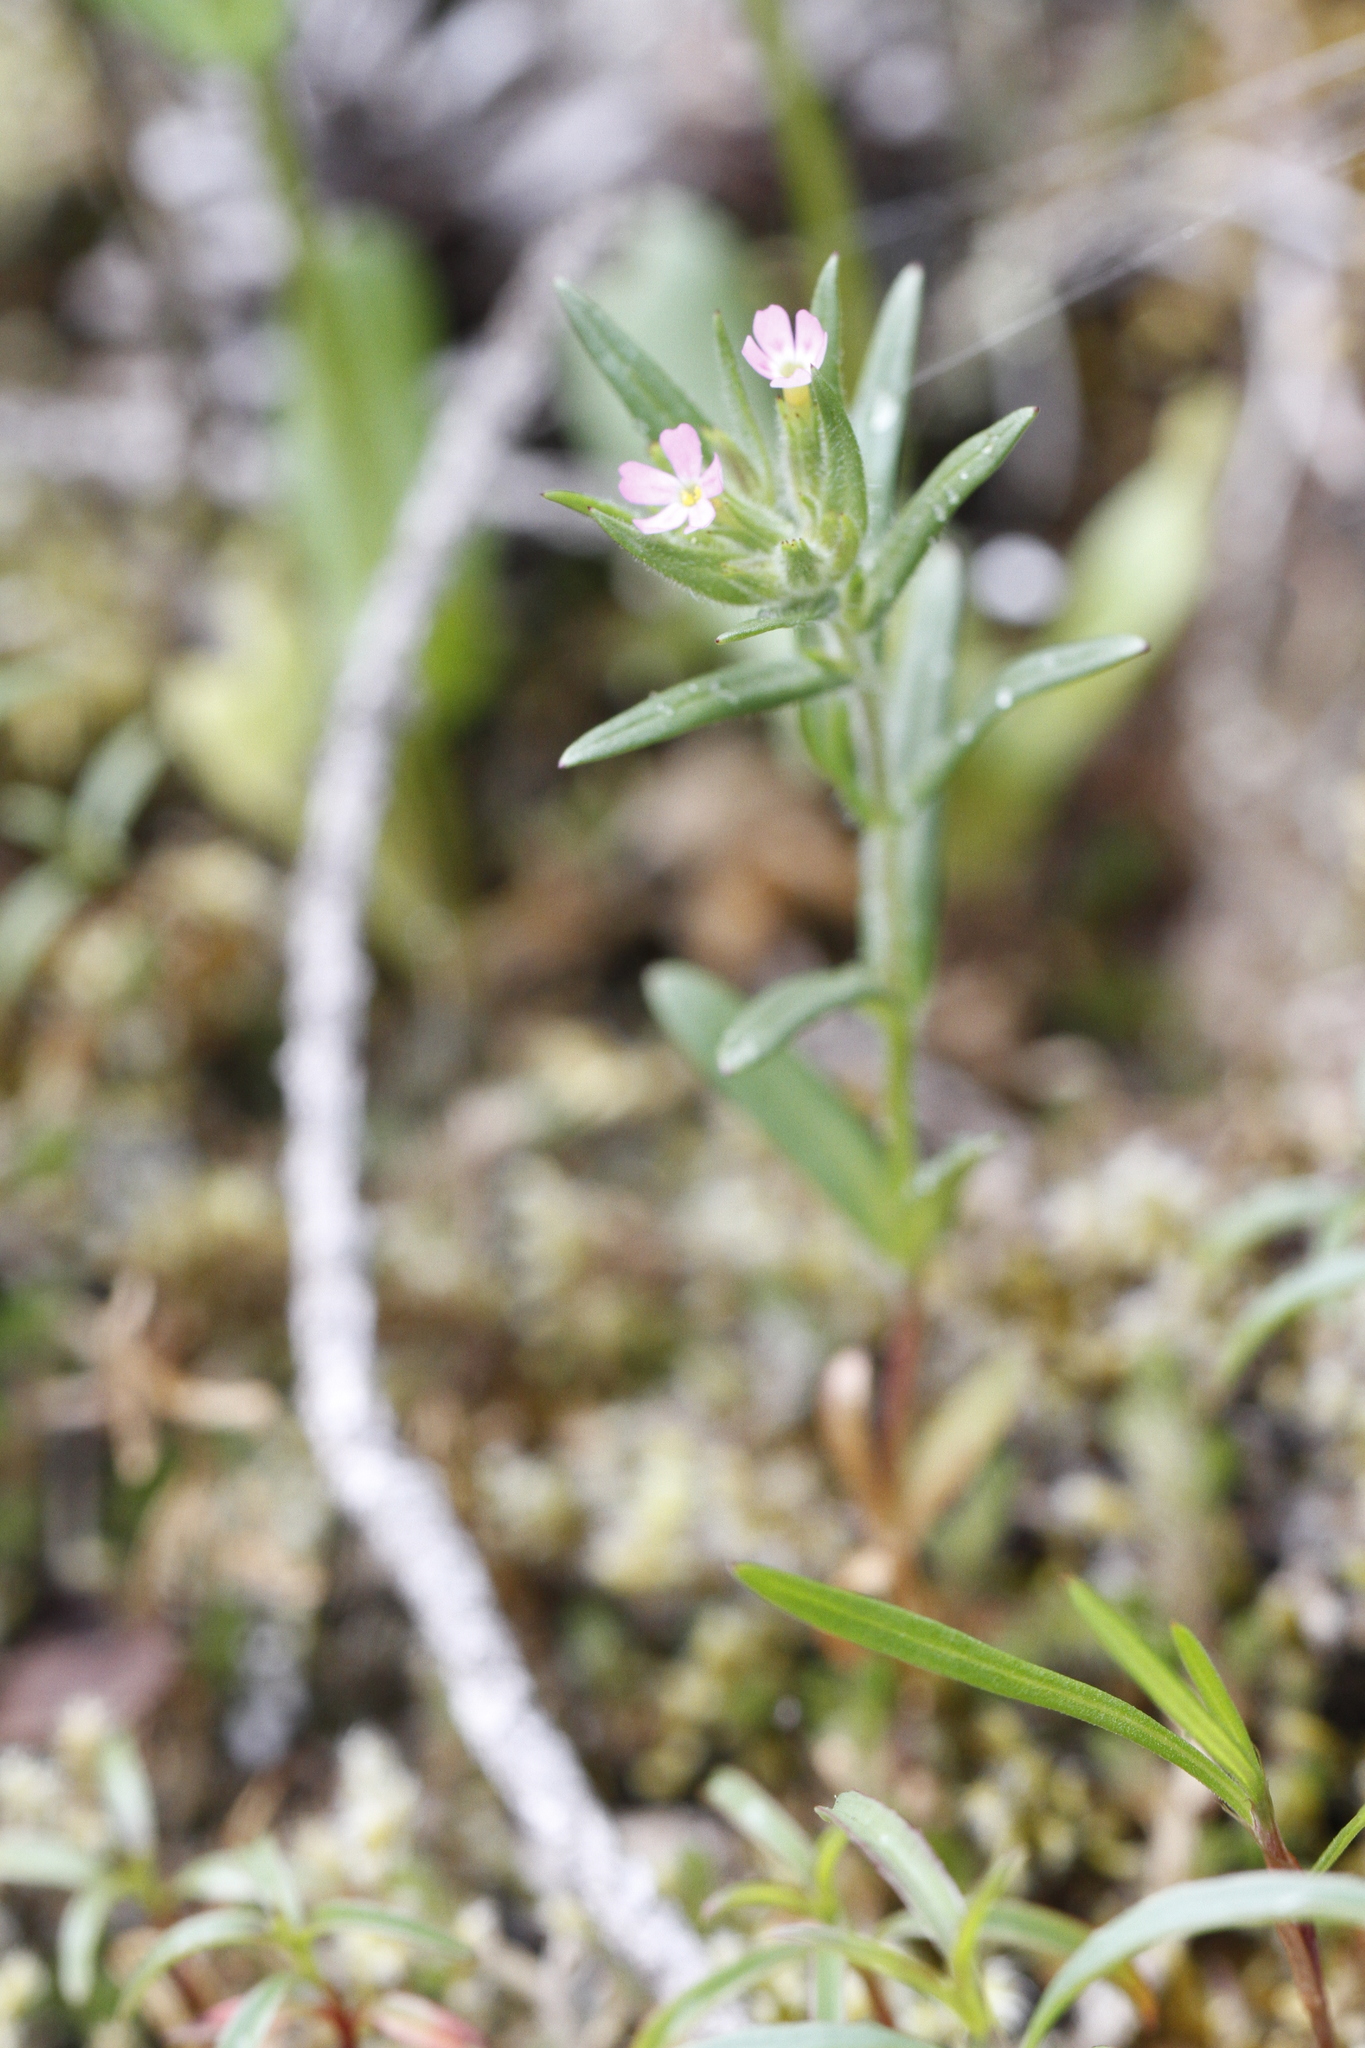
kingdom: Plantae
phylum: Tracheophyta
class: Magnoliopsida
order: Ericales
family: Polemoniaceae
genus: Phlox
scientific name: Phlox gracilis
